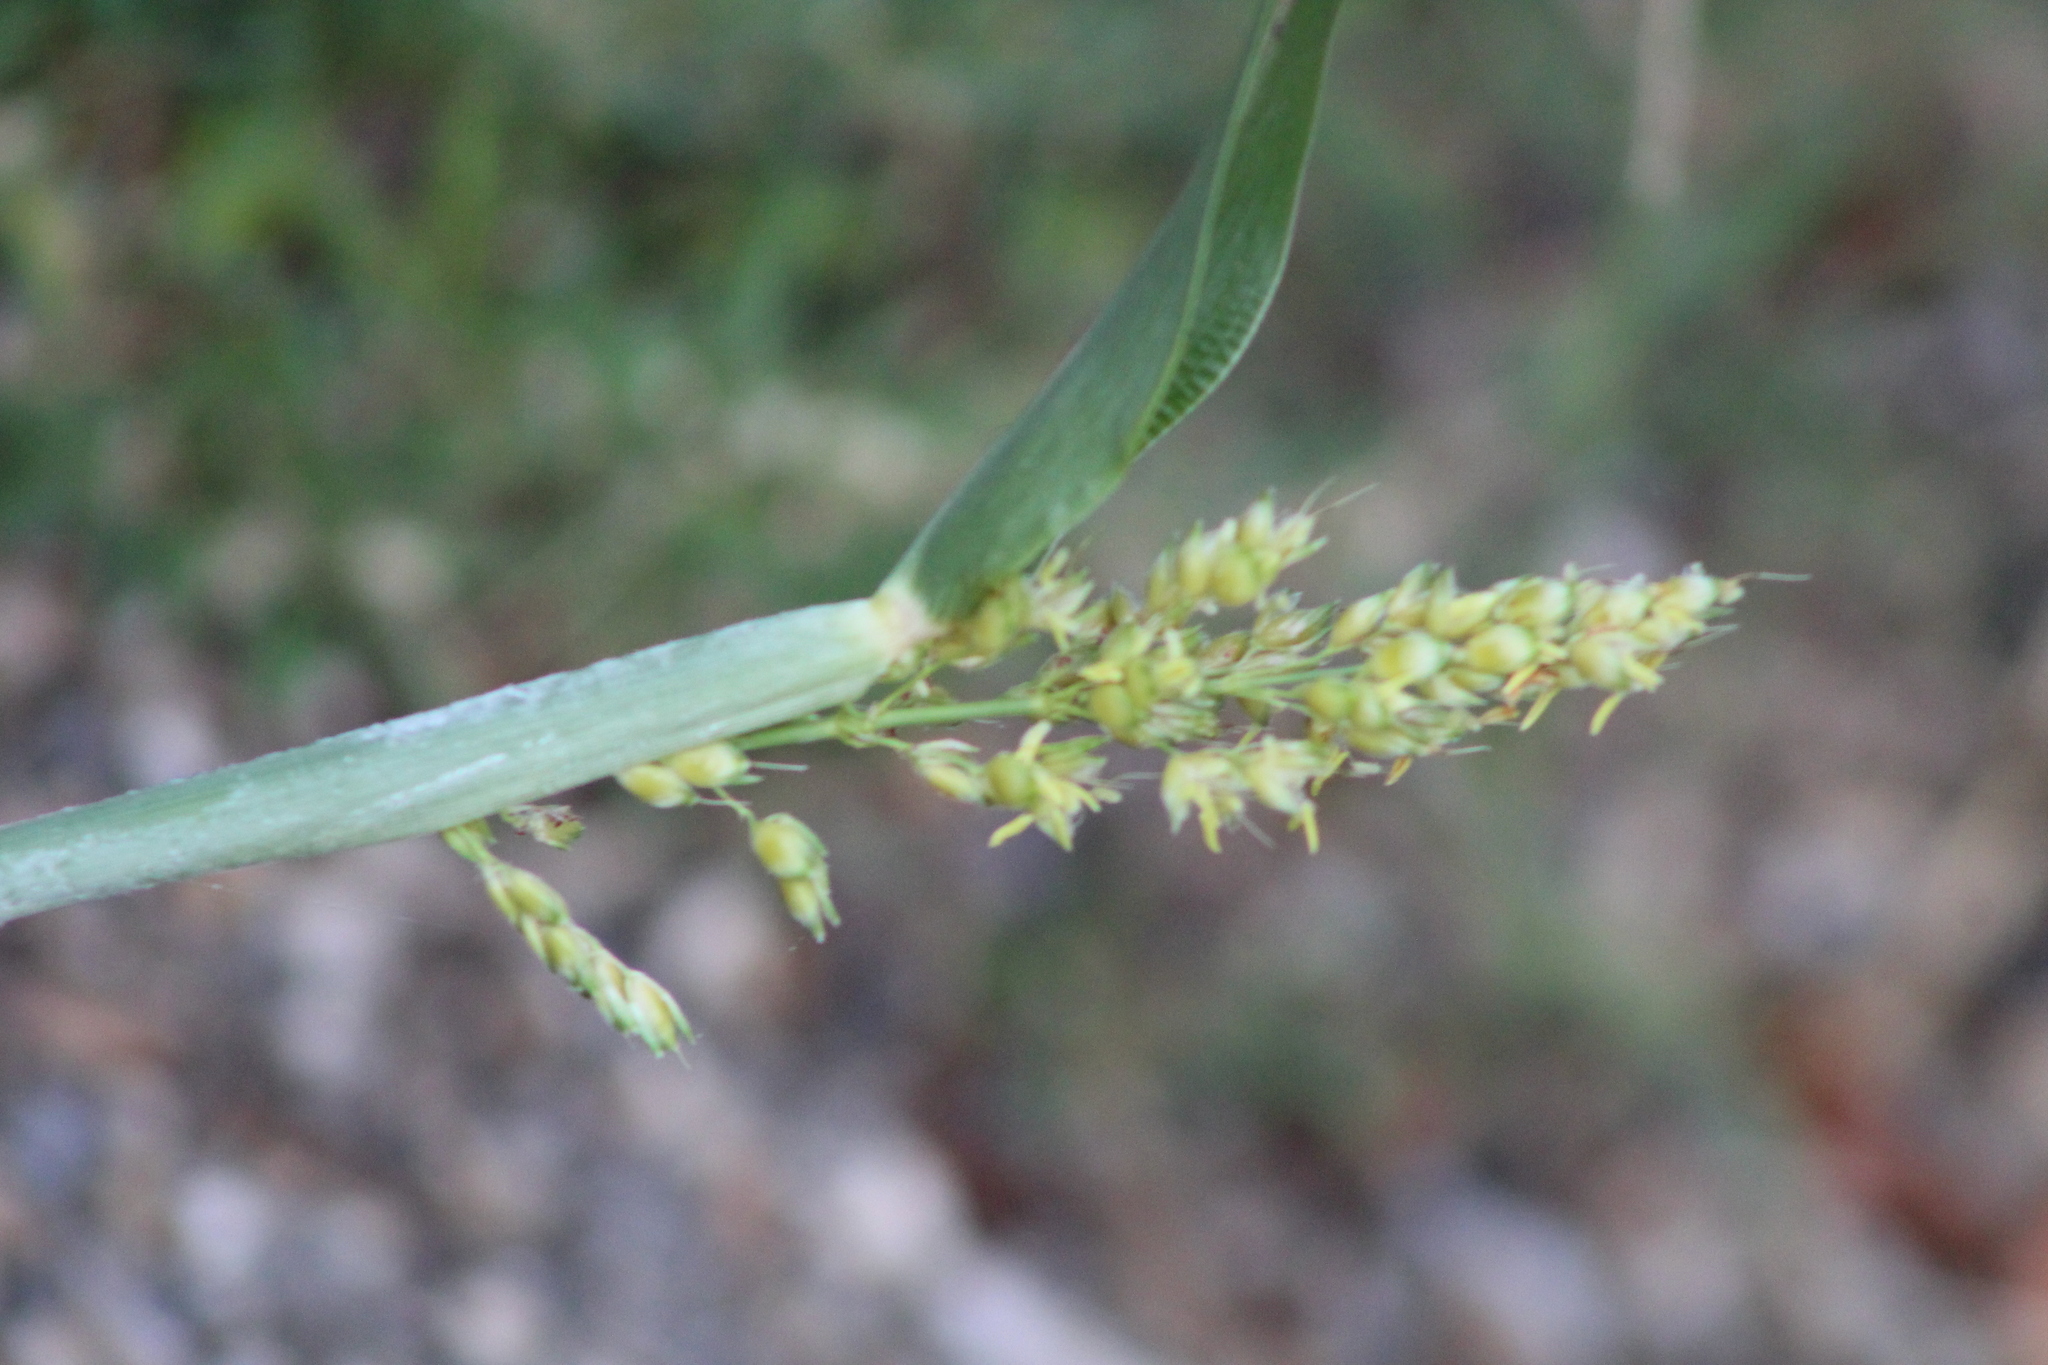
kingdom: Plantae
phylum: Tracheophyta
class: Liliopsida
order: Poales
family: Poaceae
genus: Sorghum
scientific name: Sorghum halepense
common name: Johnson-grass
